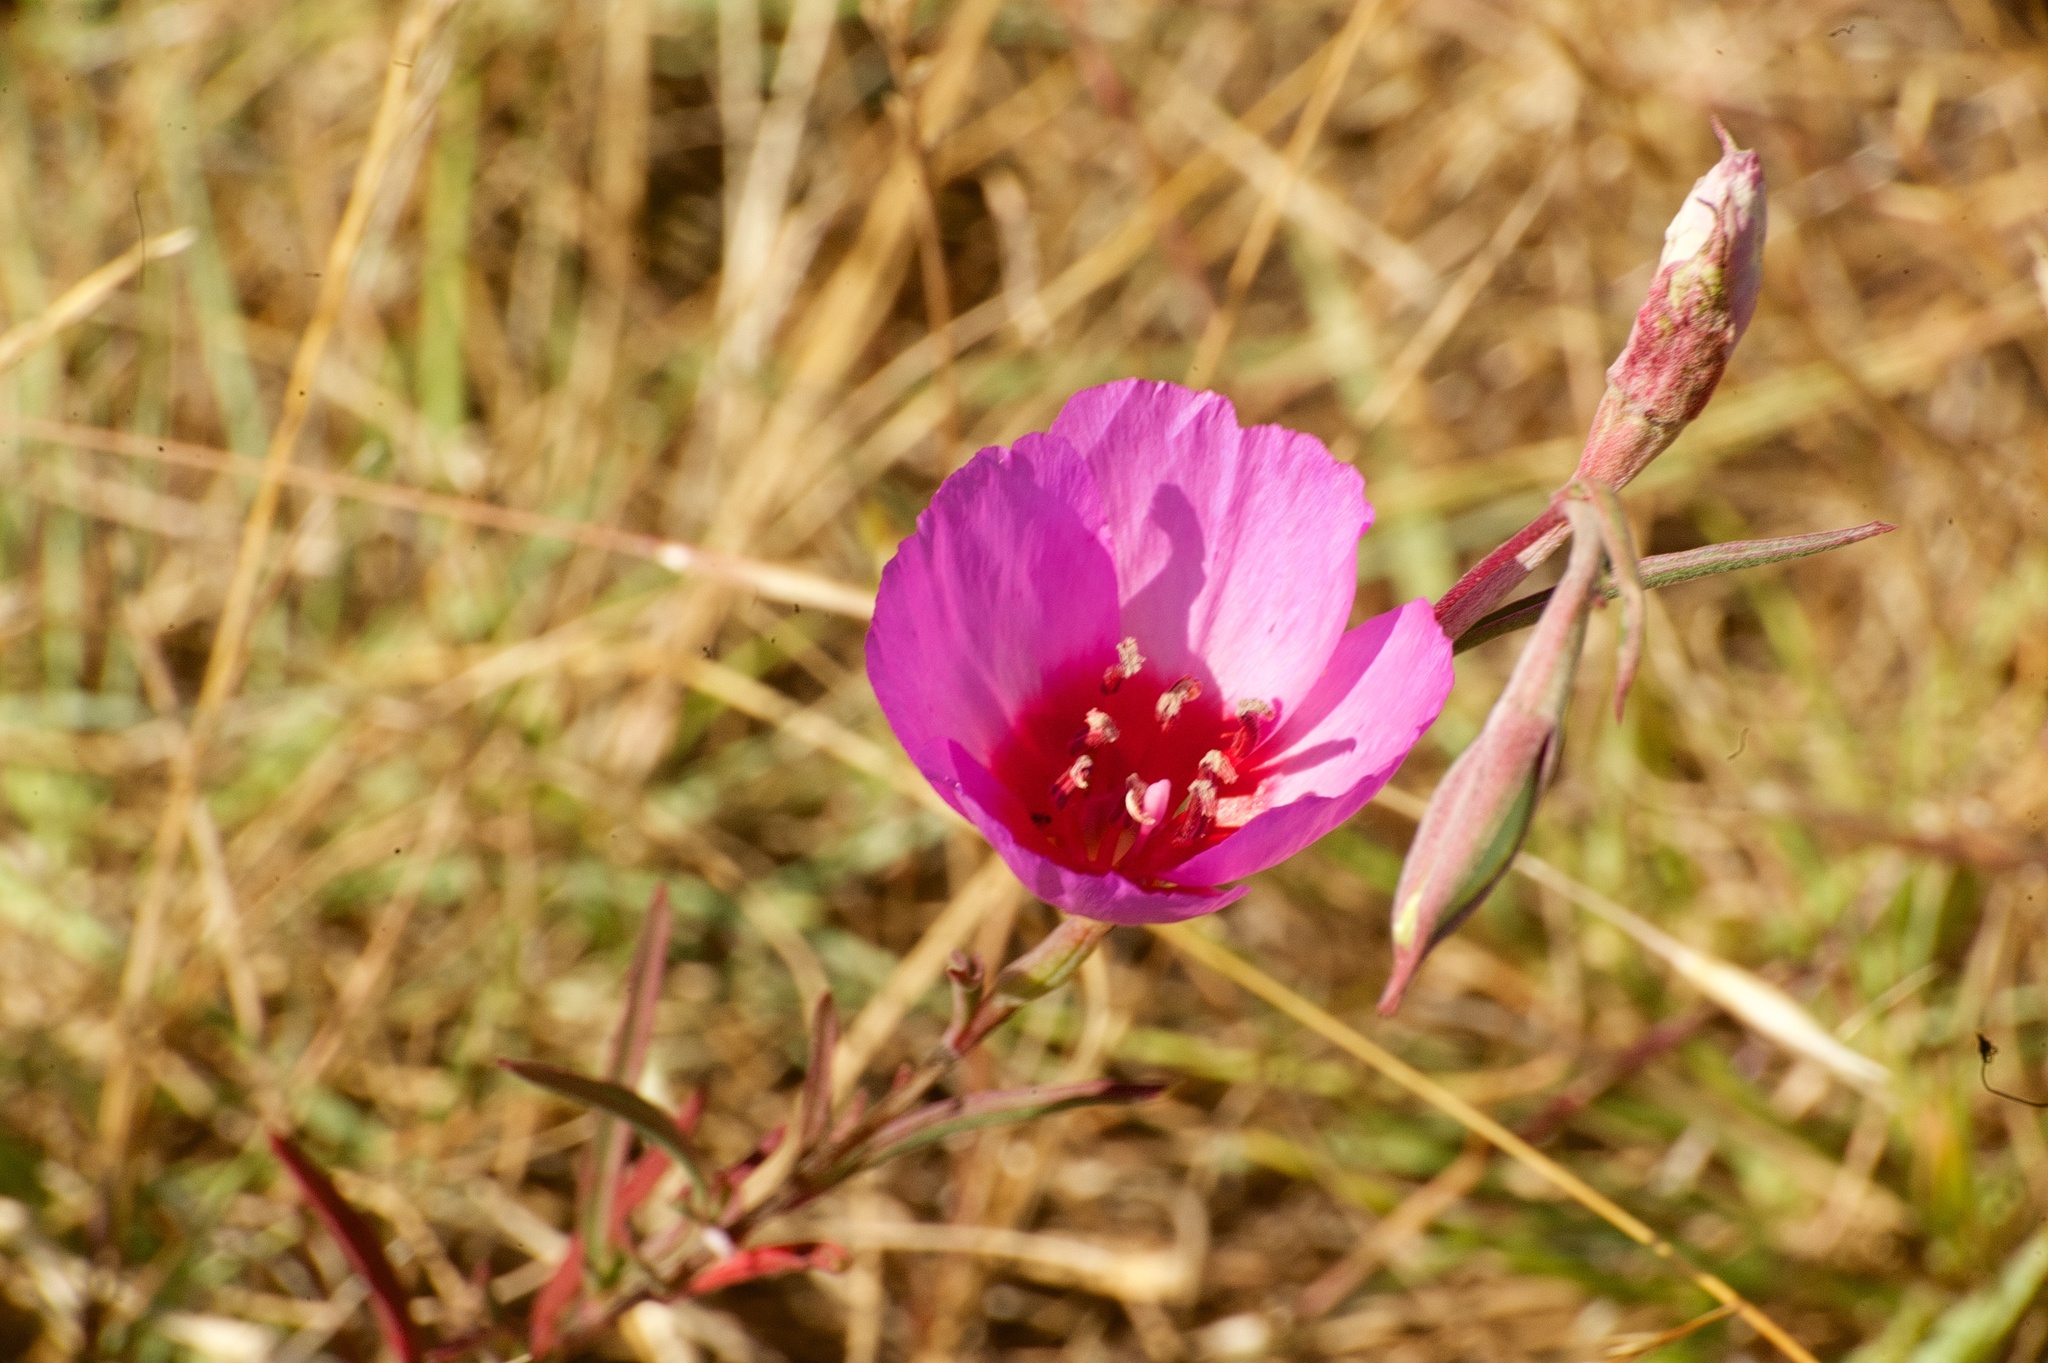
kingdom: Plantae
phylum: Tracheophyta
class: Magnoliopsida
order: Myrtales
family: Onagraceae
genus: Clarkia
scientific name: Clarkia rubicunda
